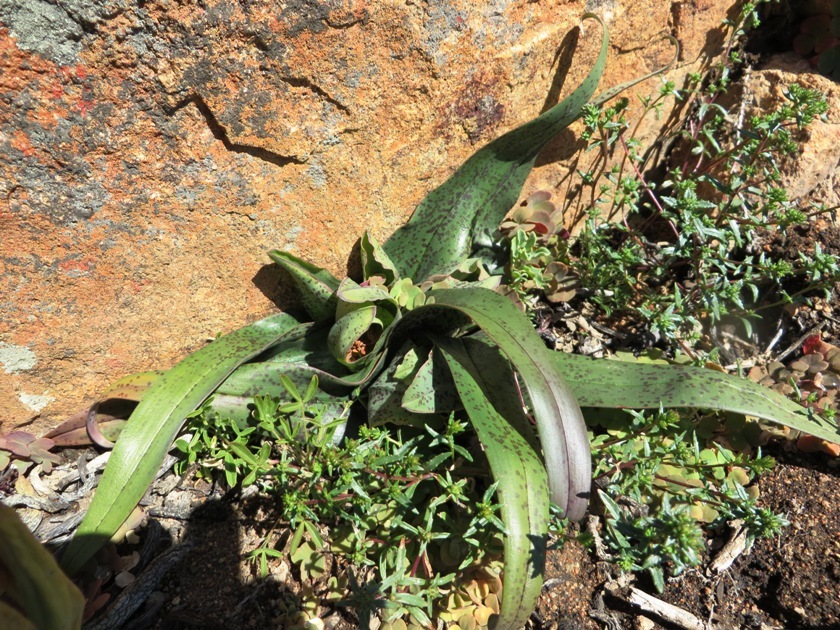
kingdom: Plantae
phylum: Tracheophyta
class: Liliopsida
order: Liliales
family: Colchicaceae
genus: Colchicum
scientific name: Colchicum albomarginatum
